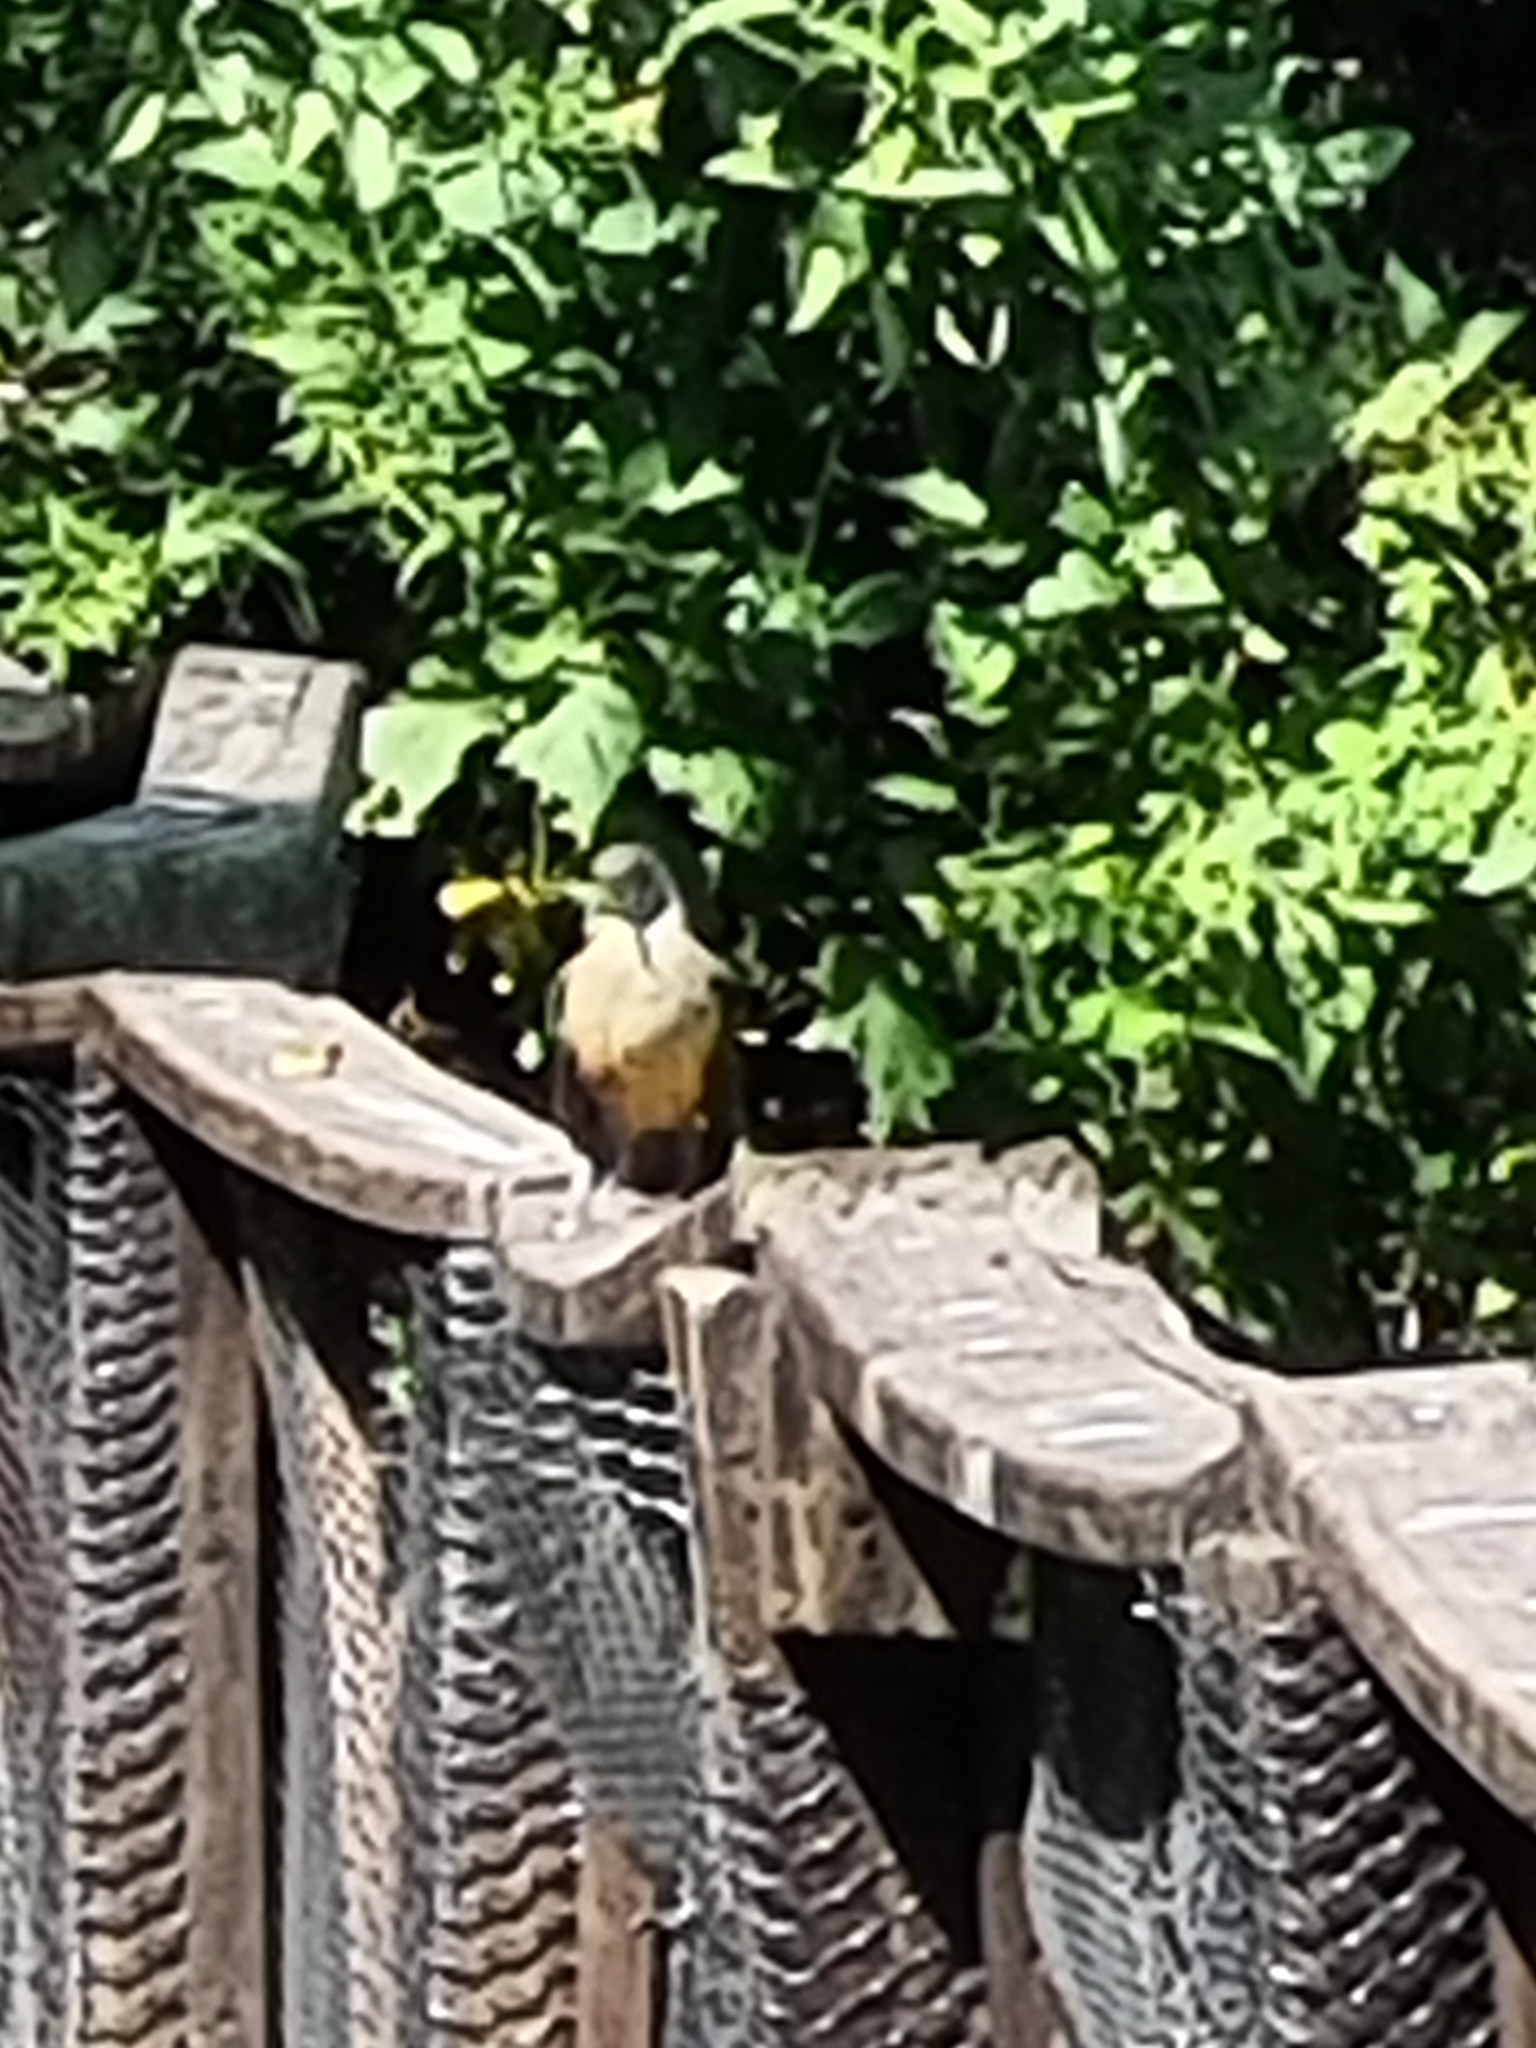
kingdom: Animalia
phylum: Chordata
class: Aves
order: Passeriformes
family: Turdidae
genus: Turdus
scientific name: Turdus rufiventris
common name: Rufous-bellied thrush
